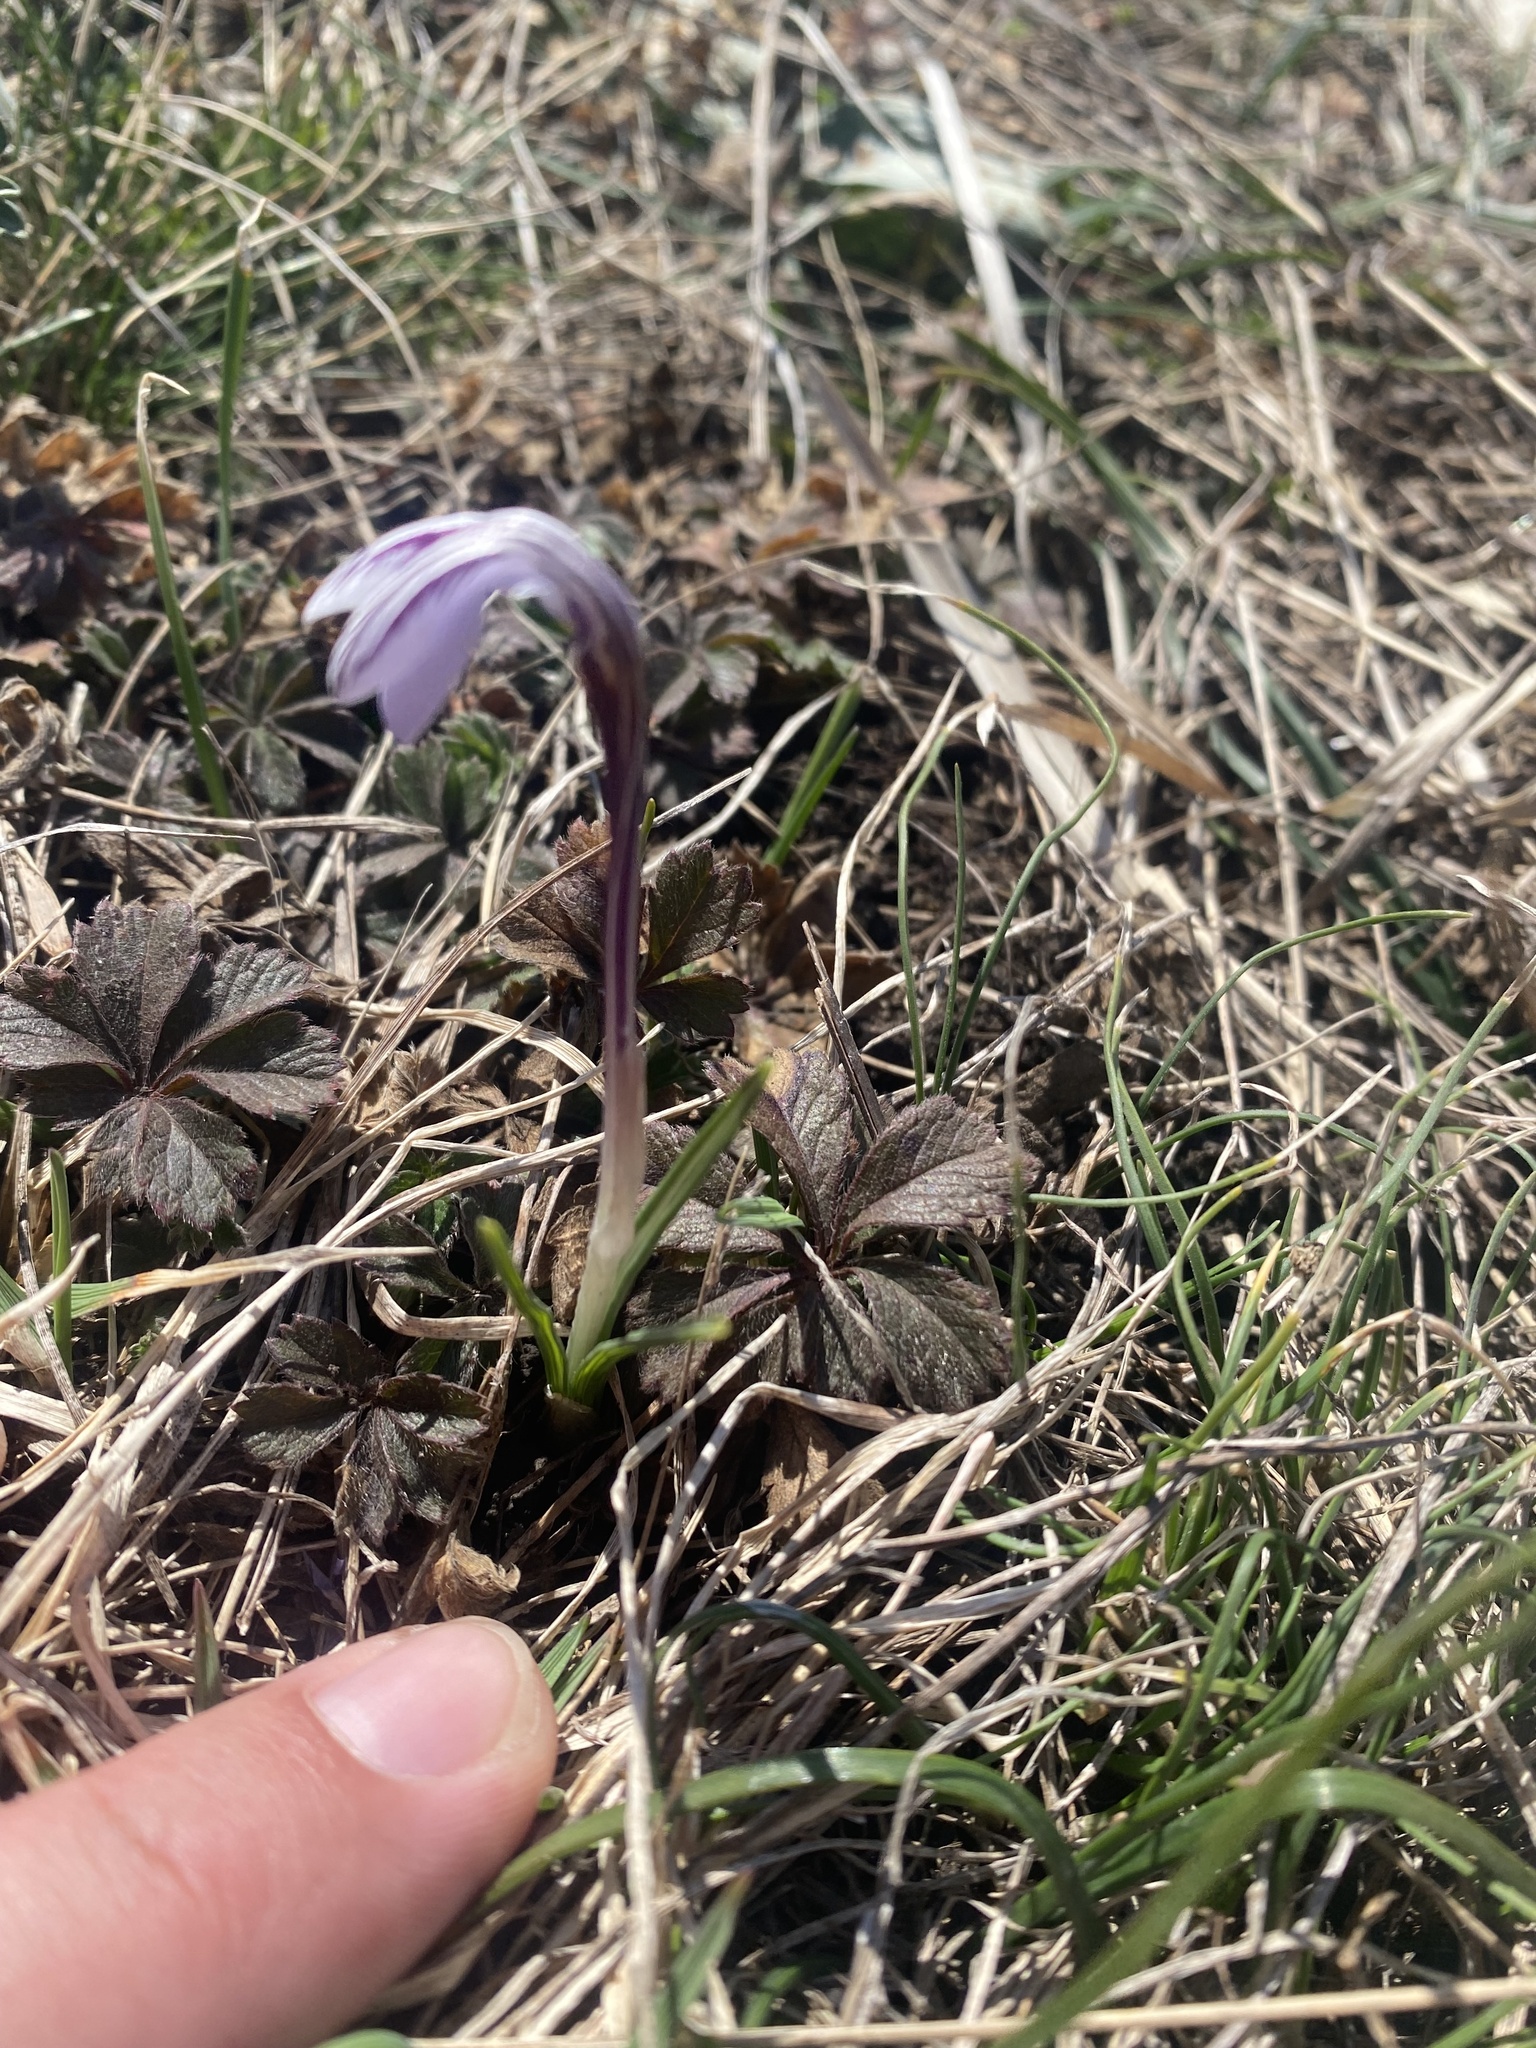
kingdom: Plantae
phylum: Tracheophyta
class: Liliopsida
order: Asparagales
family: Iridaceae
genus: Crocus
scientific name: Crocus reticulatus
